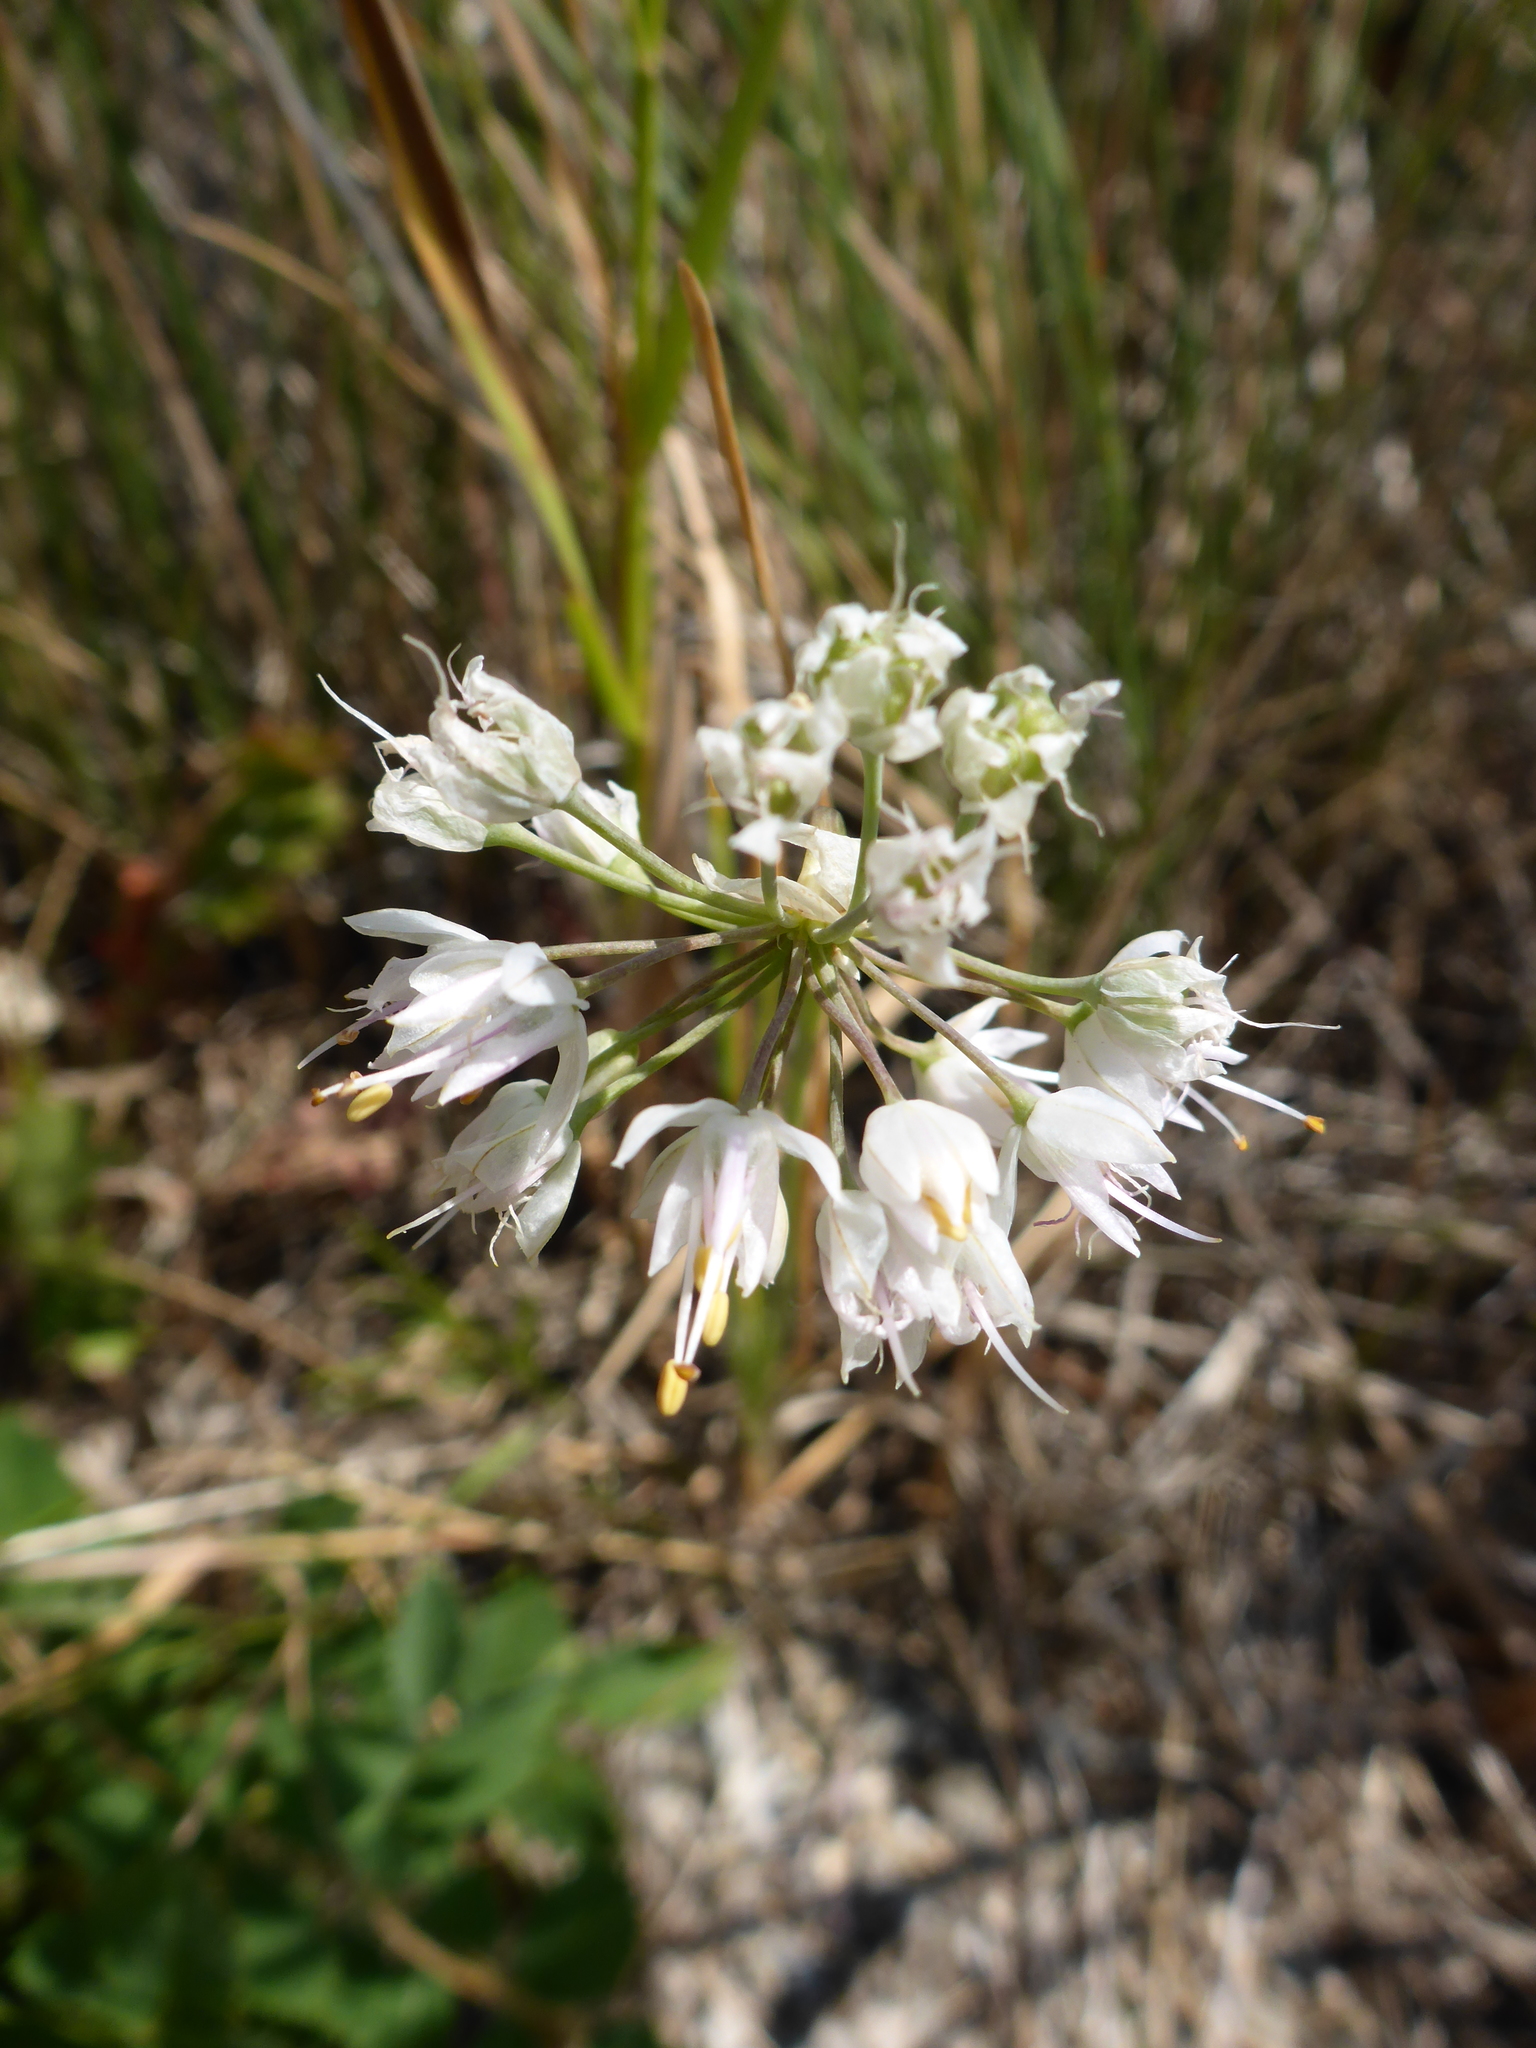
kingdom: Plantae
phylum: Tracheophyta
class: Liliopsida
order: Asparagales
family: Amaryllidaceae
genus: Allium
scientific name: Allium cernuum
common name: Nodding onion
